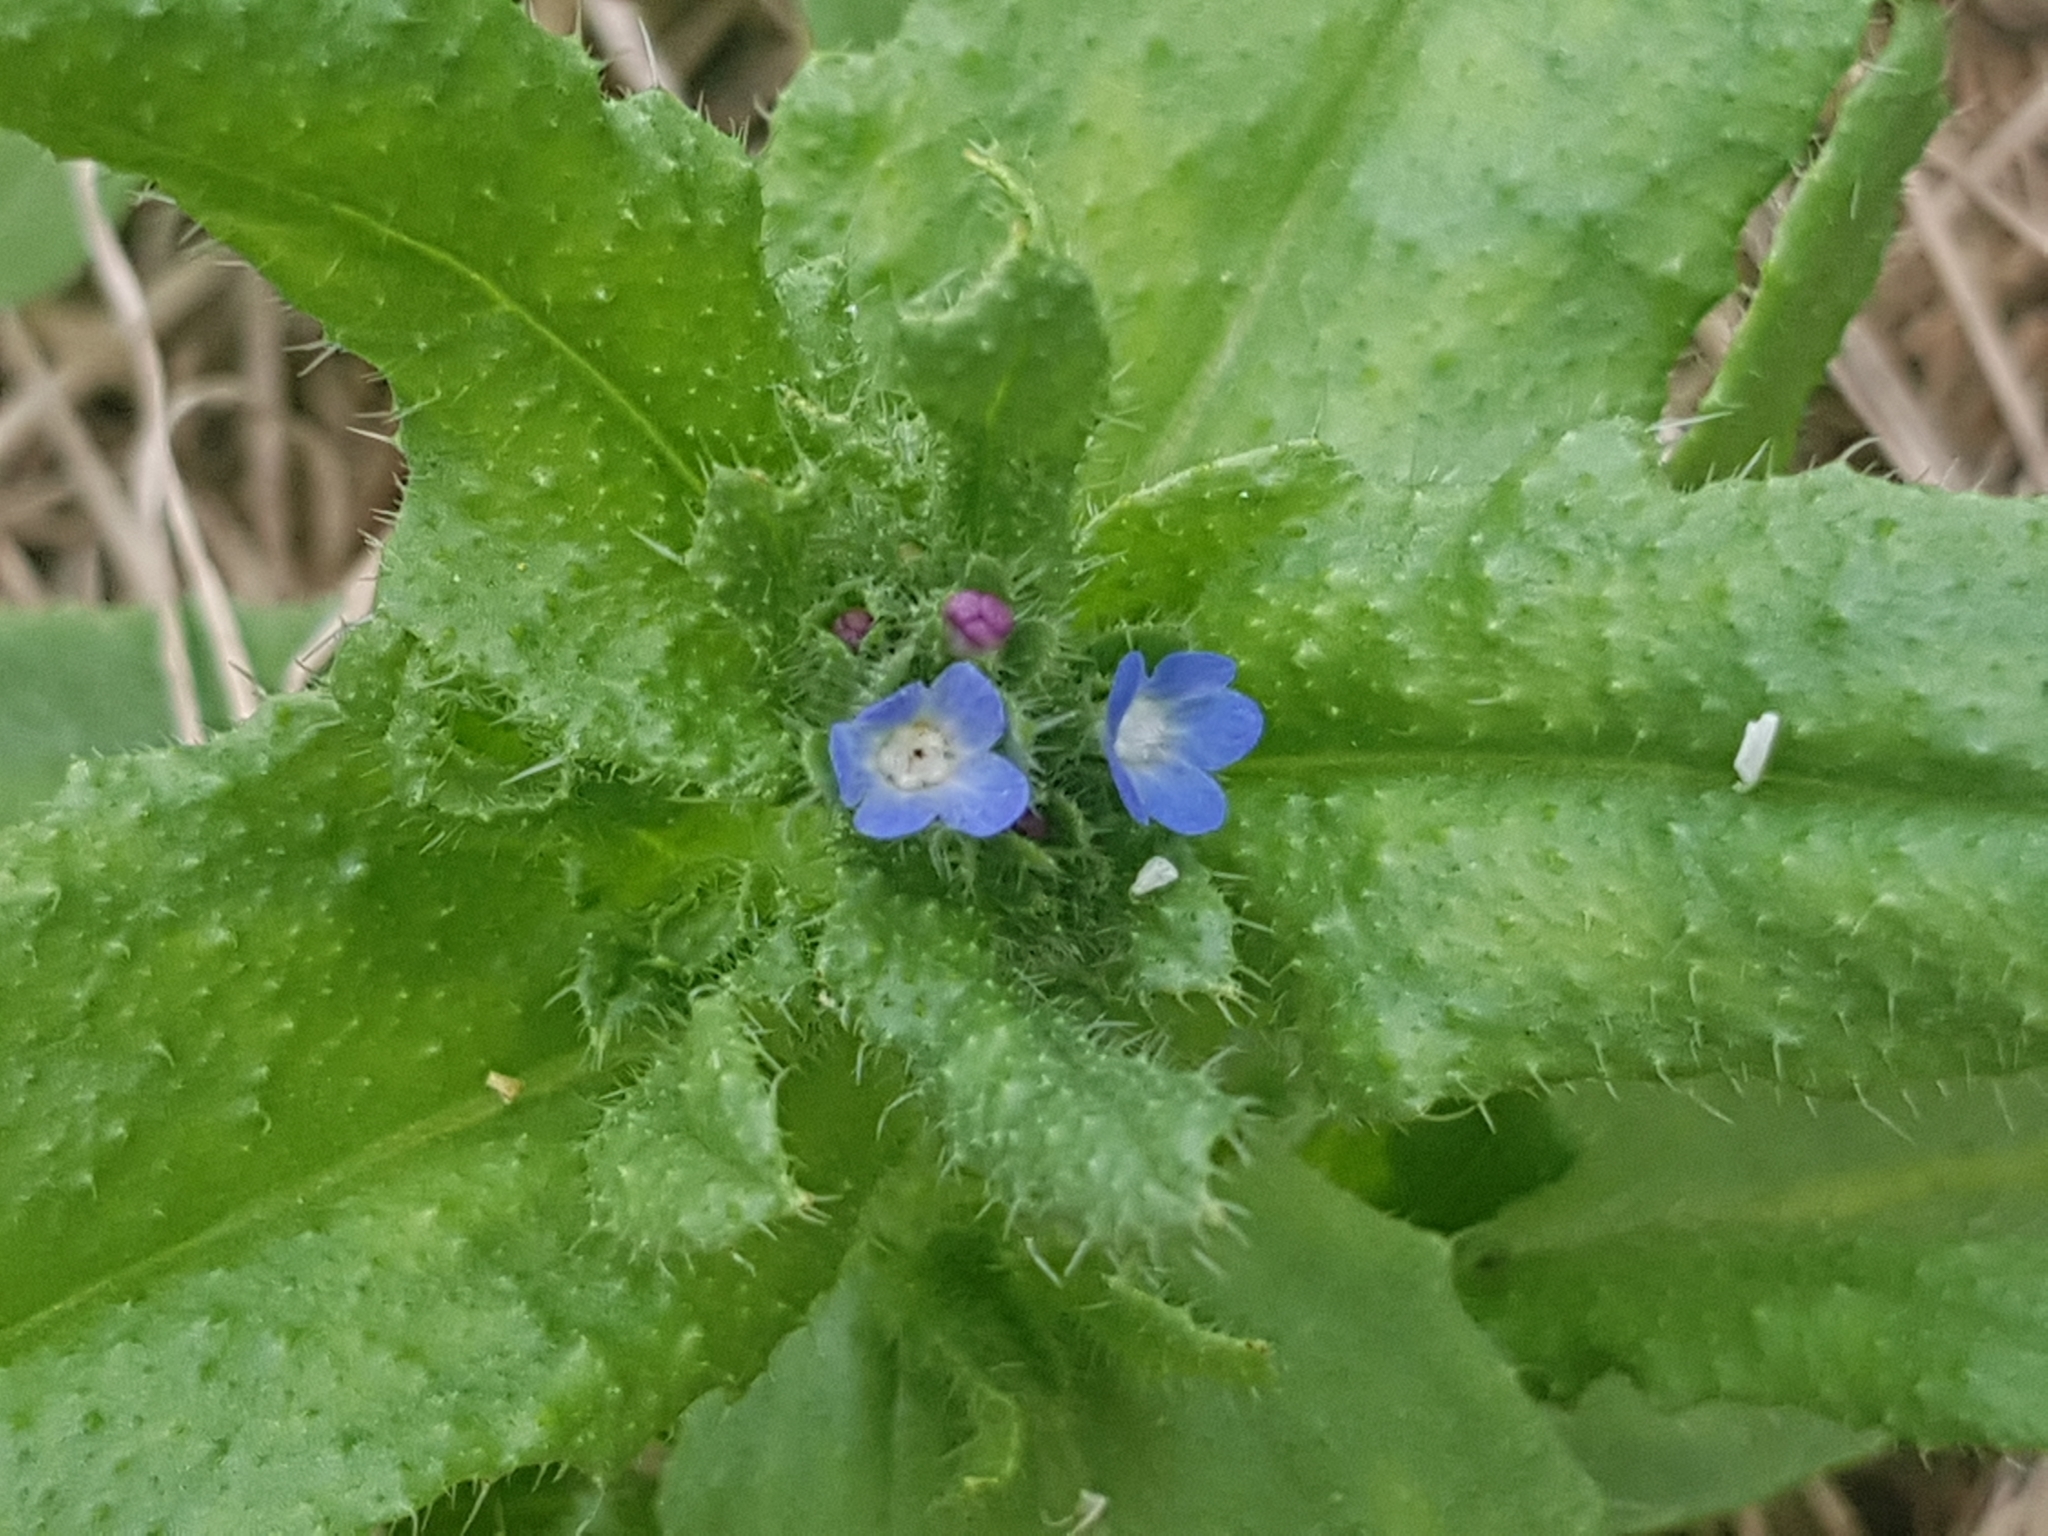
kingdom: Plantae
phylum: Tracheophyta
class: Magnoliopsida
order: Boraginales
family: Boraginaceae
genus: Lycopsis
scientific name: Lycopsis arvensis
